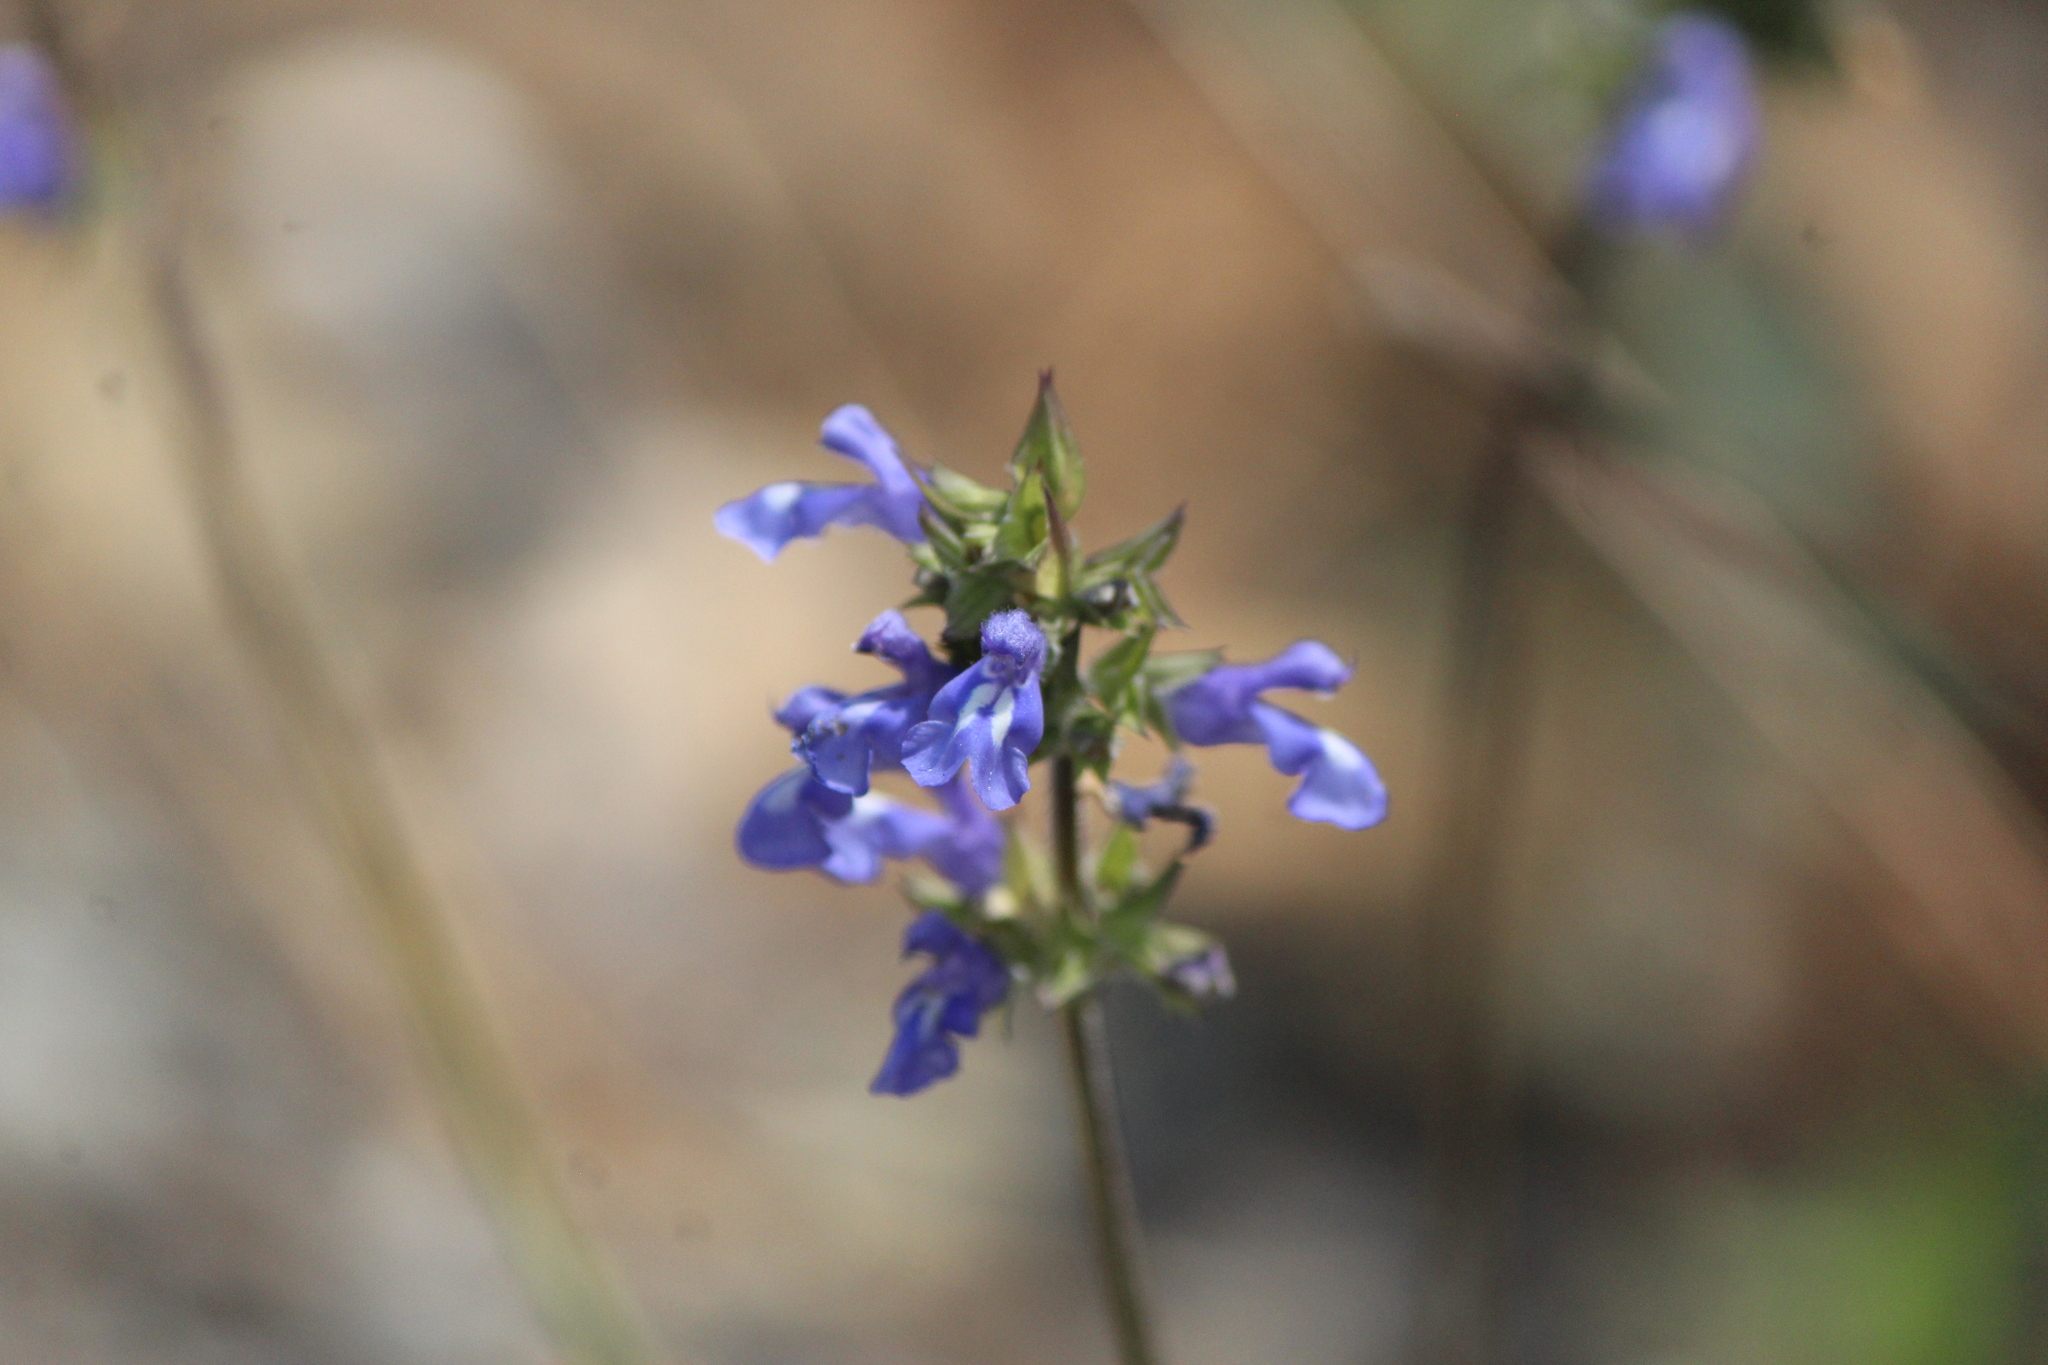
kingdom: Plantae
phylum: Tracheophyta
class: Magnoliopsida
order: Lamiales
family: Lamiaceae
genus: Salvia
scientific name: Salvia prunelloides
